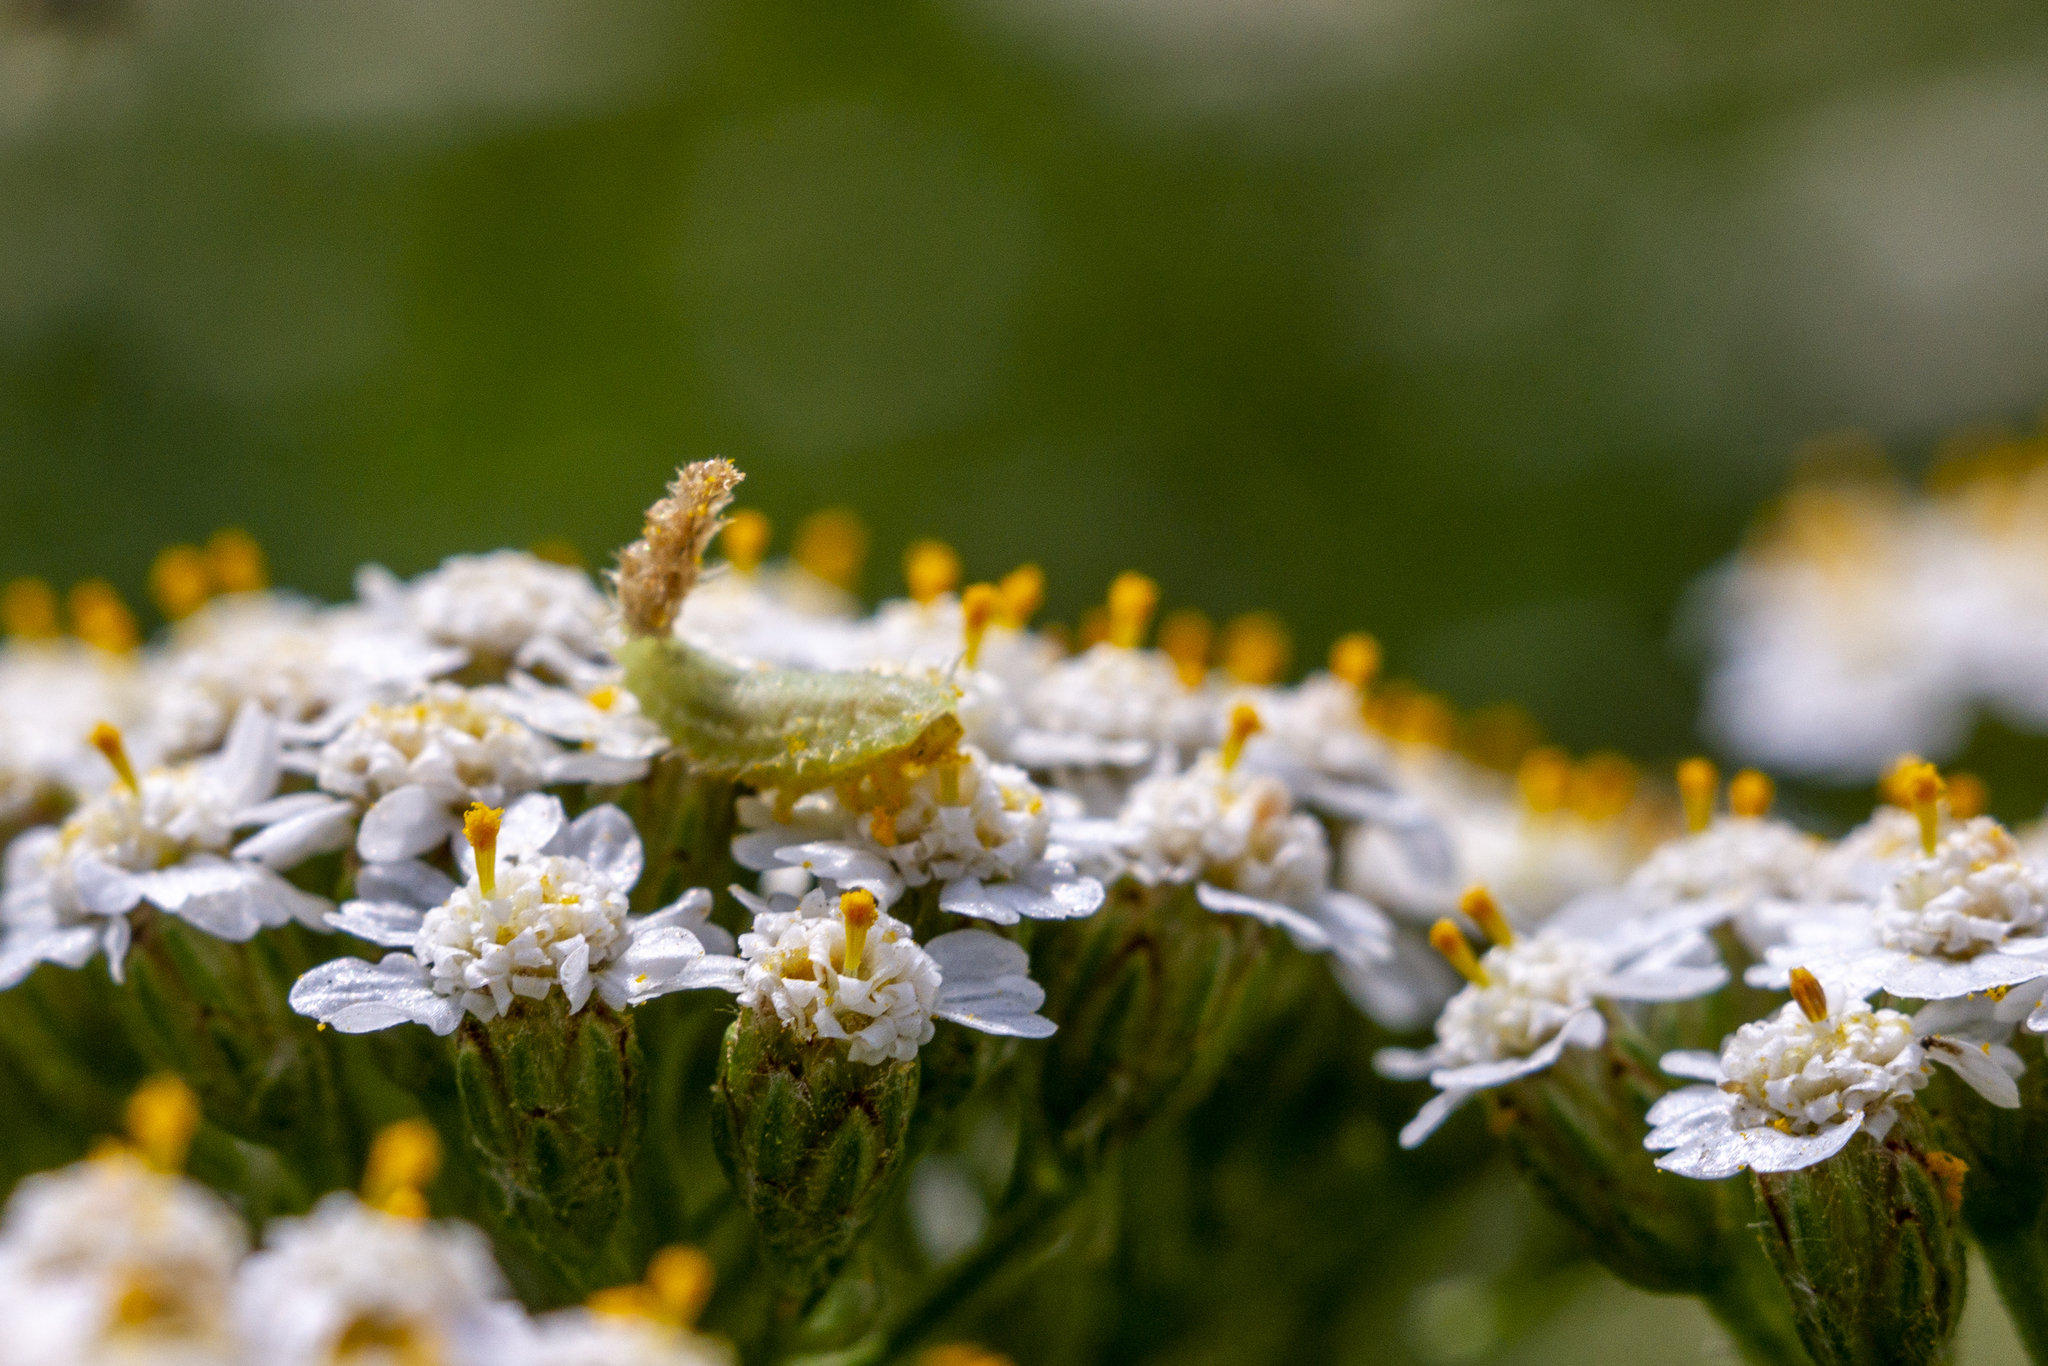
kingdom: Animalia
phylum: Arthropoda
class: Insecta
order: Coleoptera
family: Chrysomelidae
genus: Cassida
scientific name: Cassida prasina
